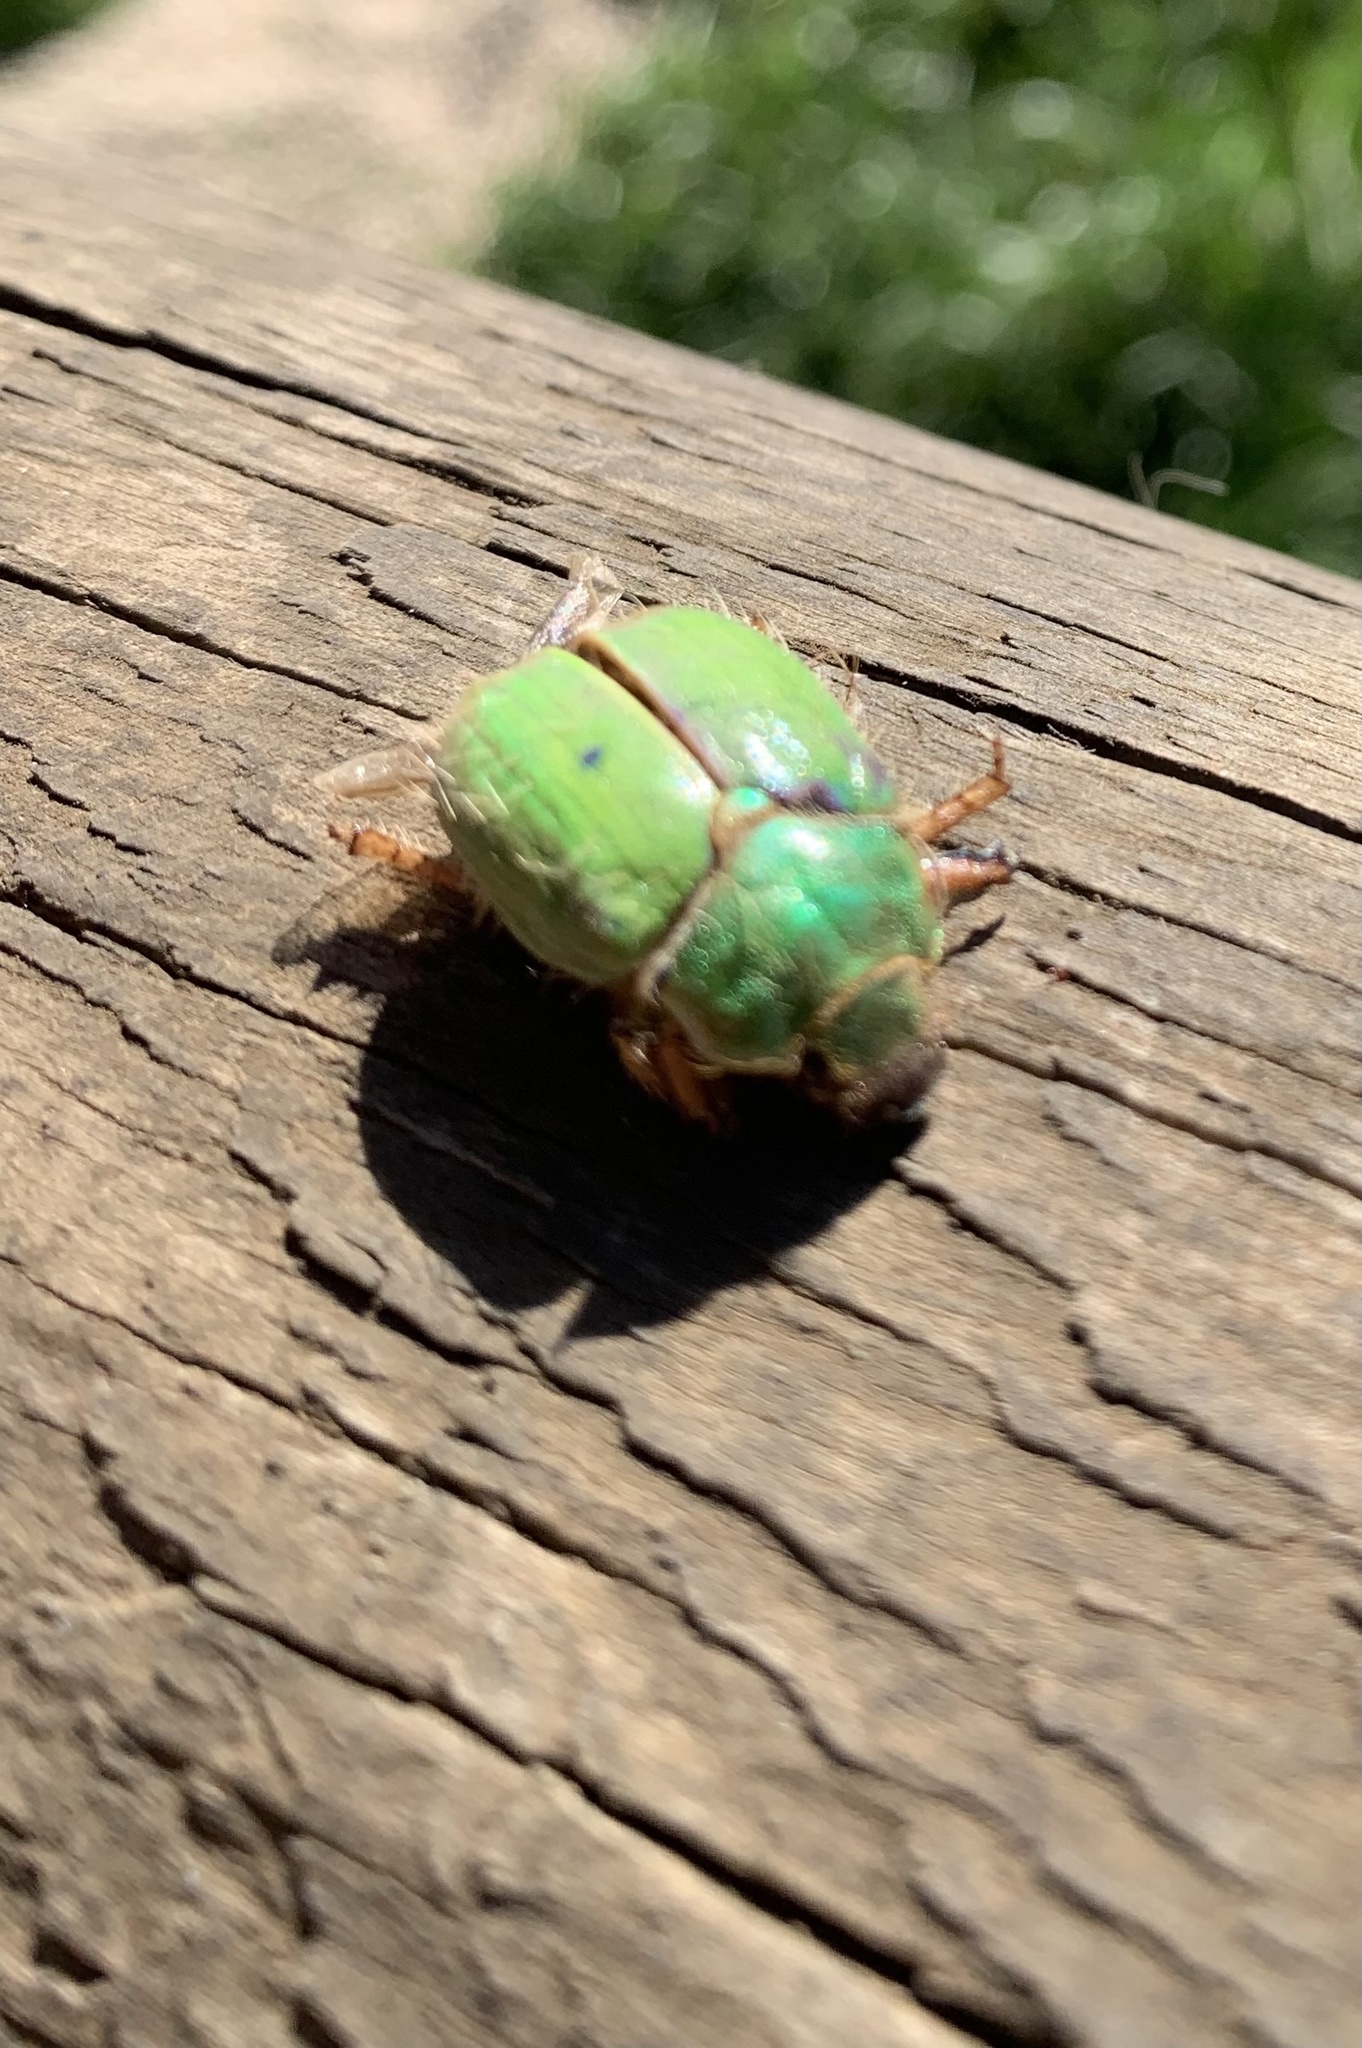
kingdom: Animalia
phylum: Arthropoda
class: Insecta
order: Coleoptera
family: Scarabaeidae
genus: Brachysternus
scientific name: Brachysternus prasinus
